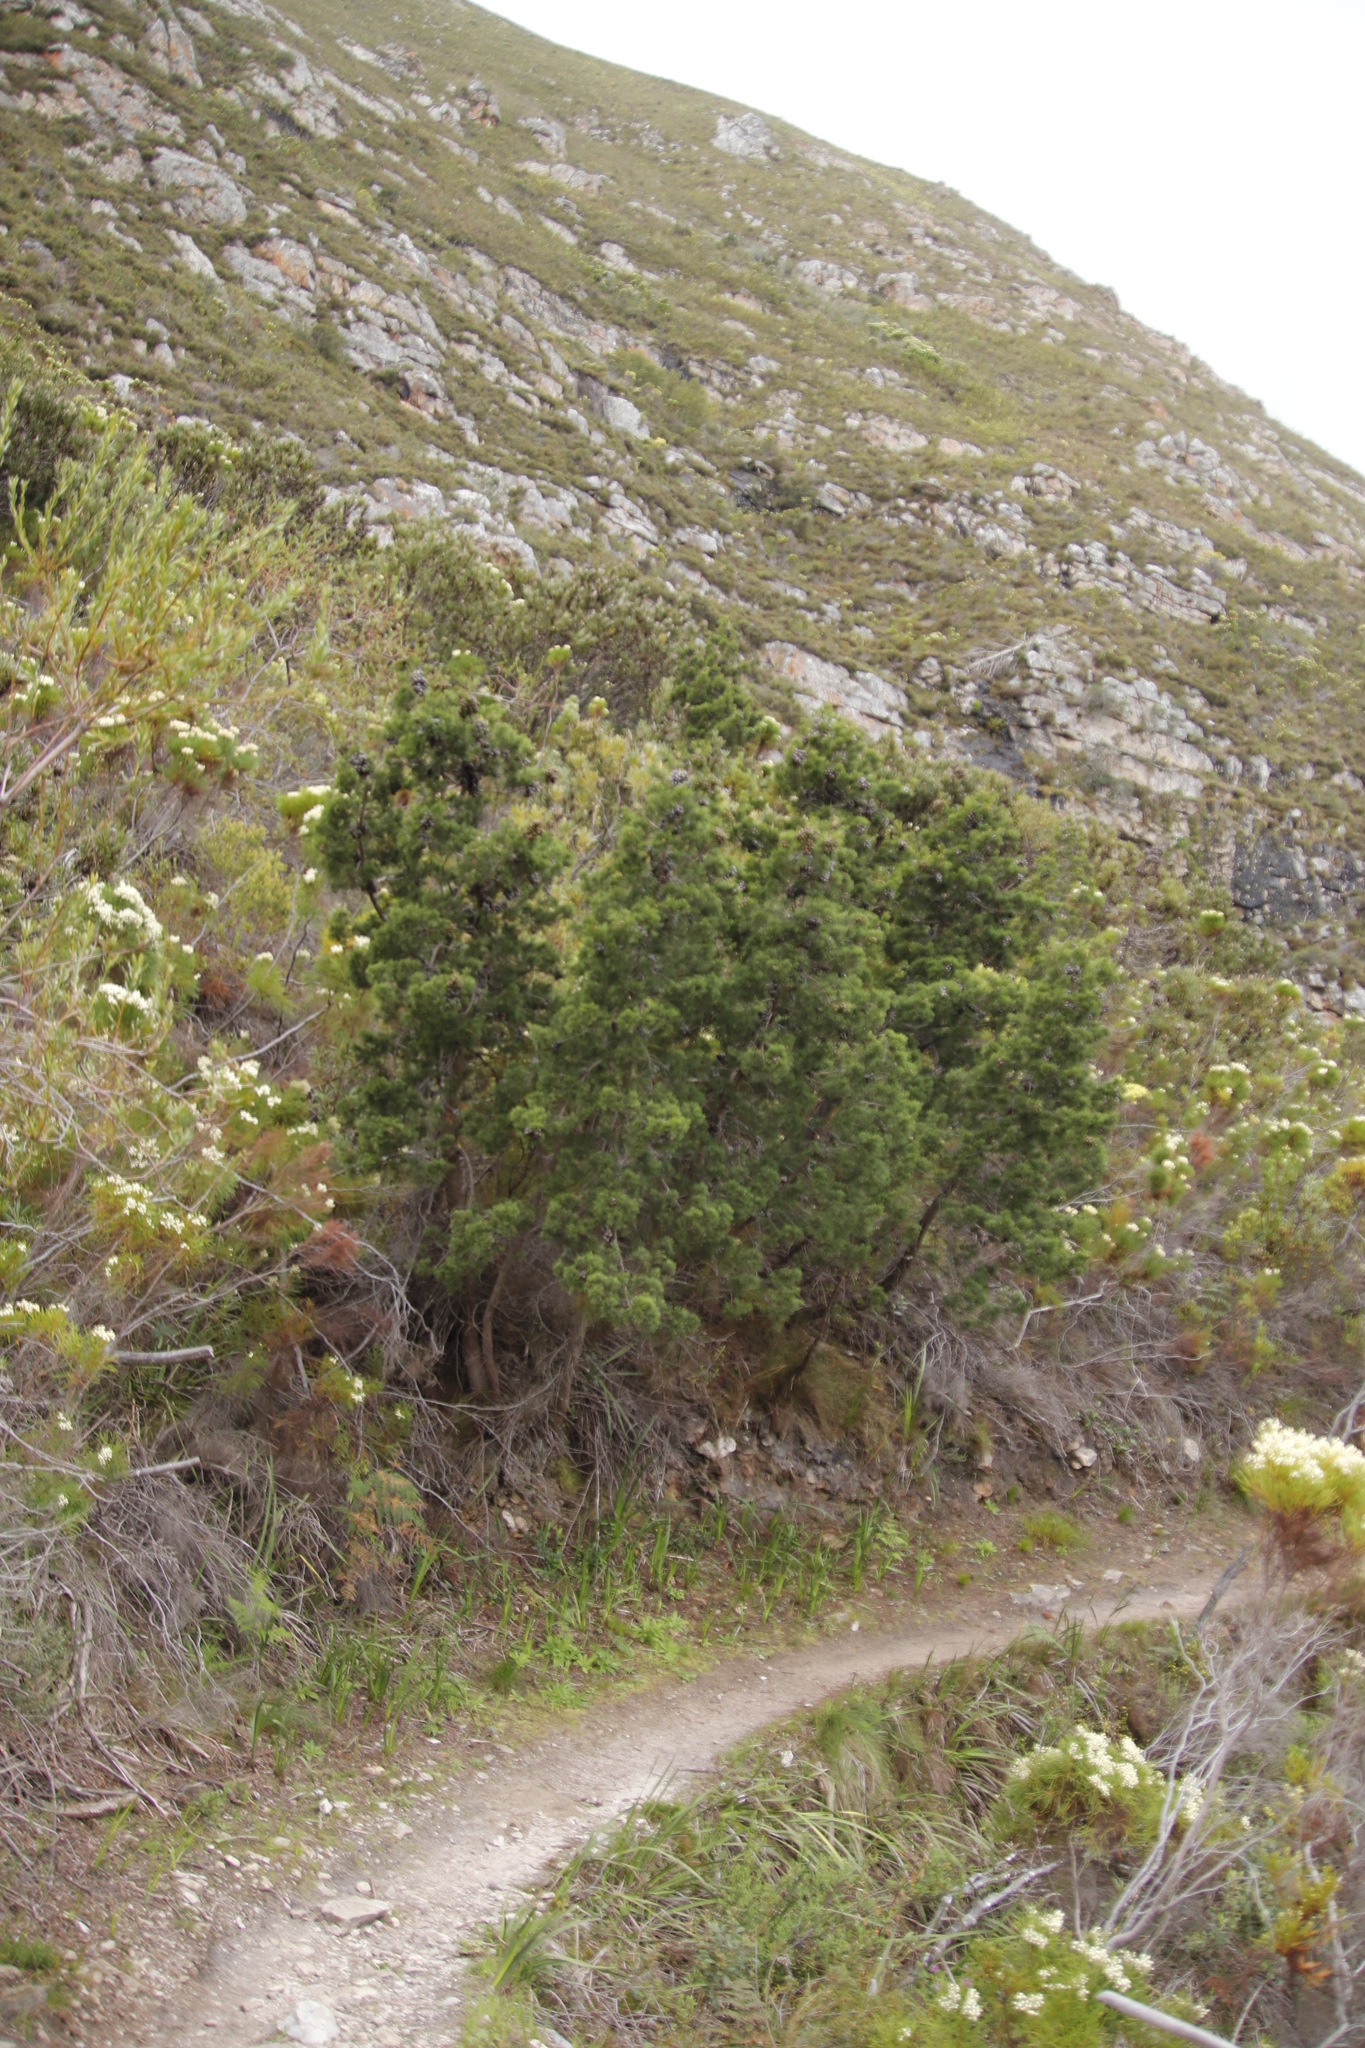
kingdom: Plantae
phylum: Tracheophyta
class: Pinopsida
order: Pinales
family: Cupressaceae
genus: Widdringtonia
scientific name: Widdringtonia nodiflora
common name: Cape cypress
